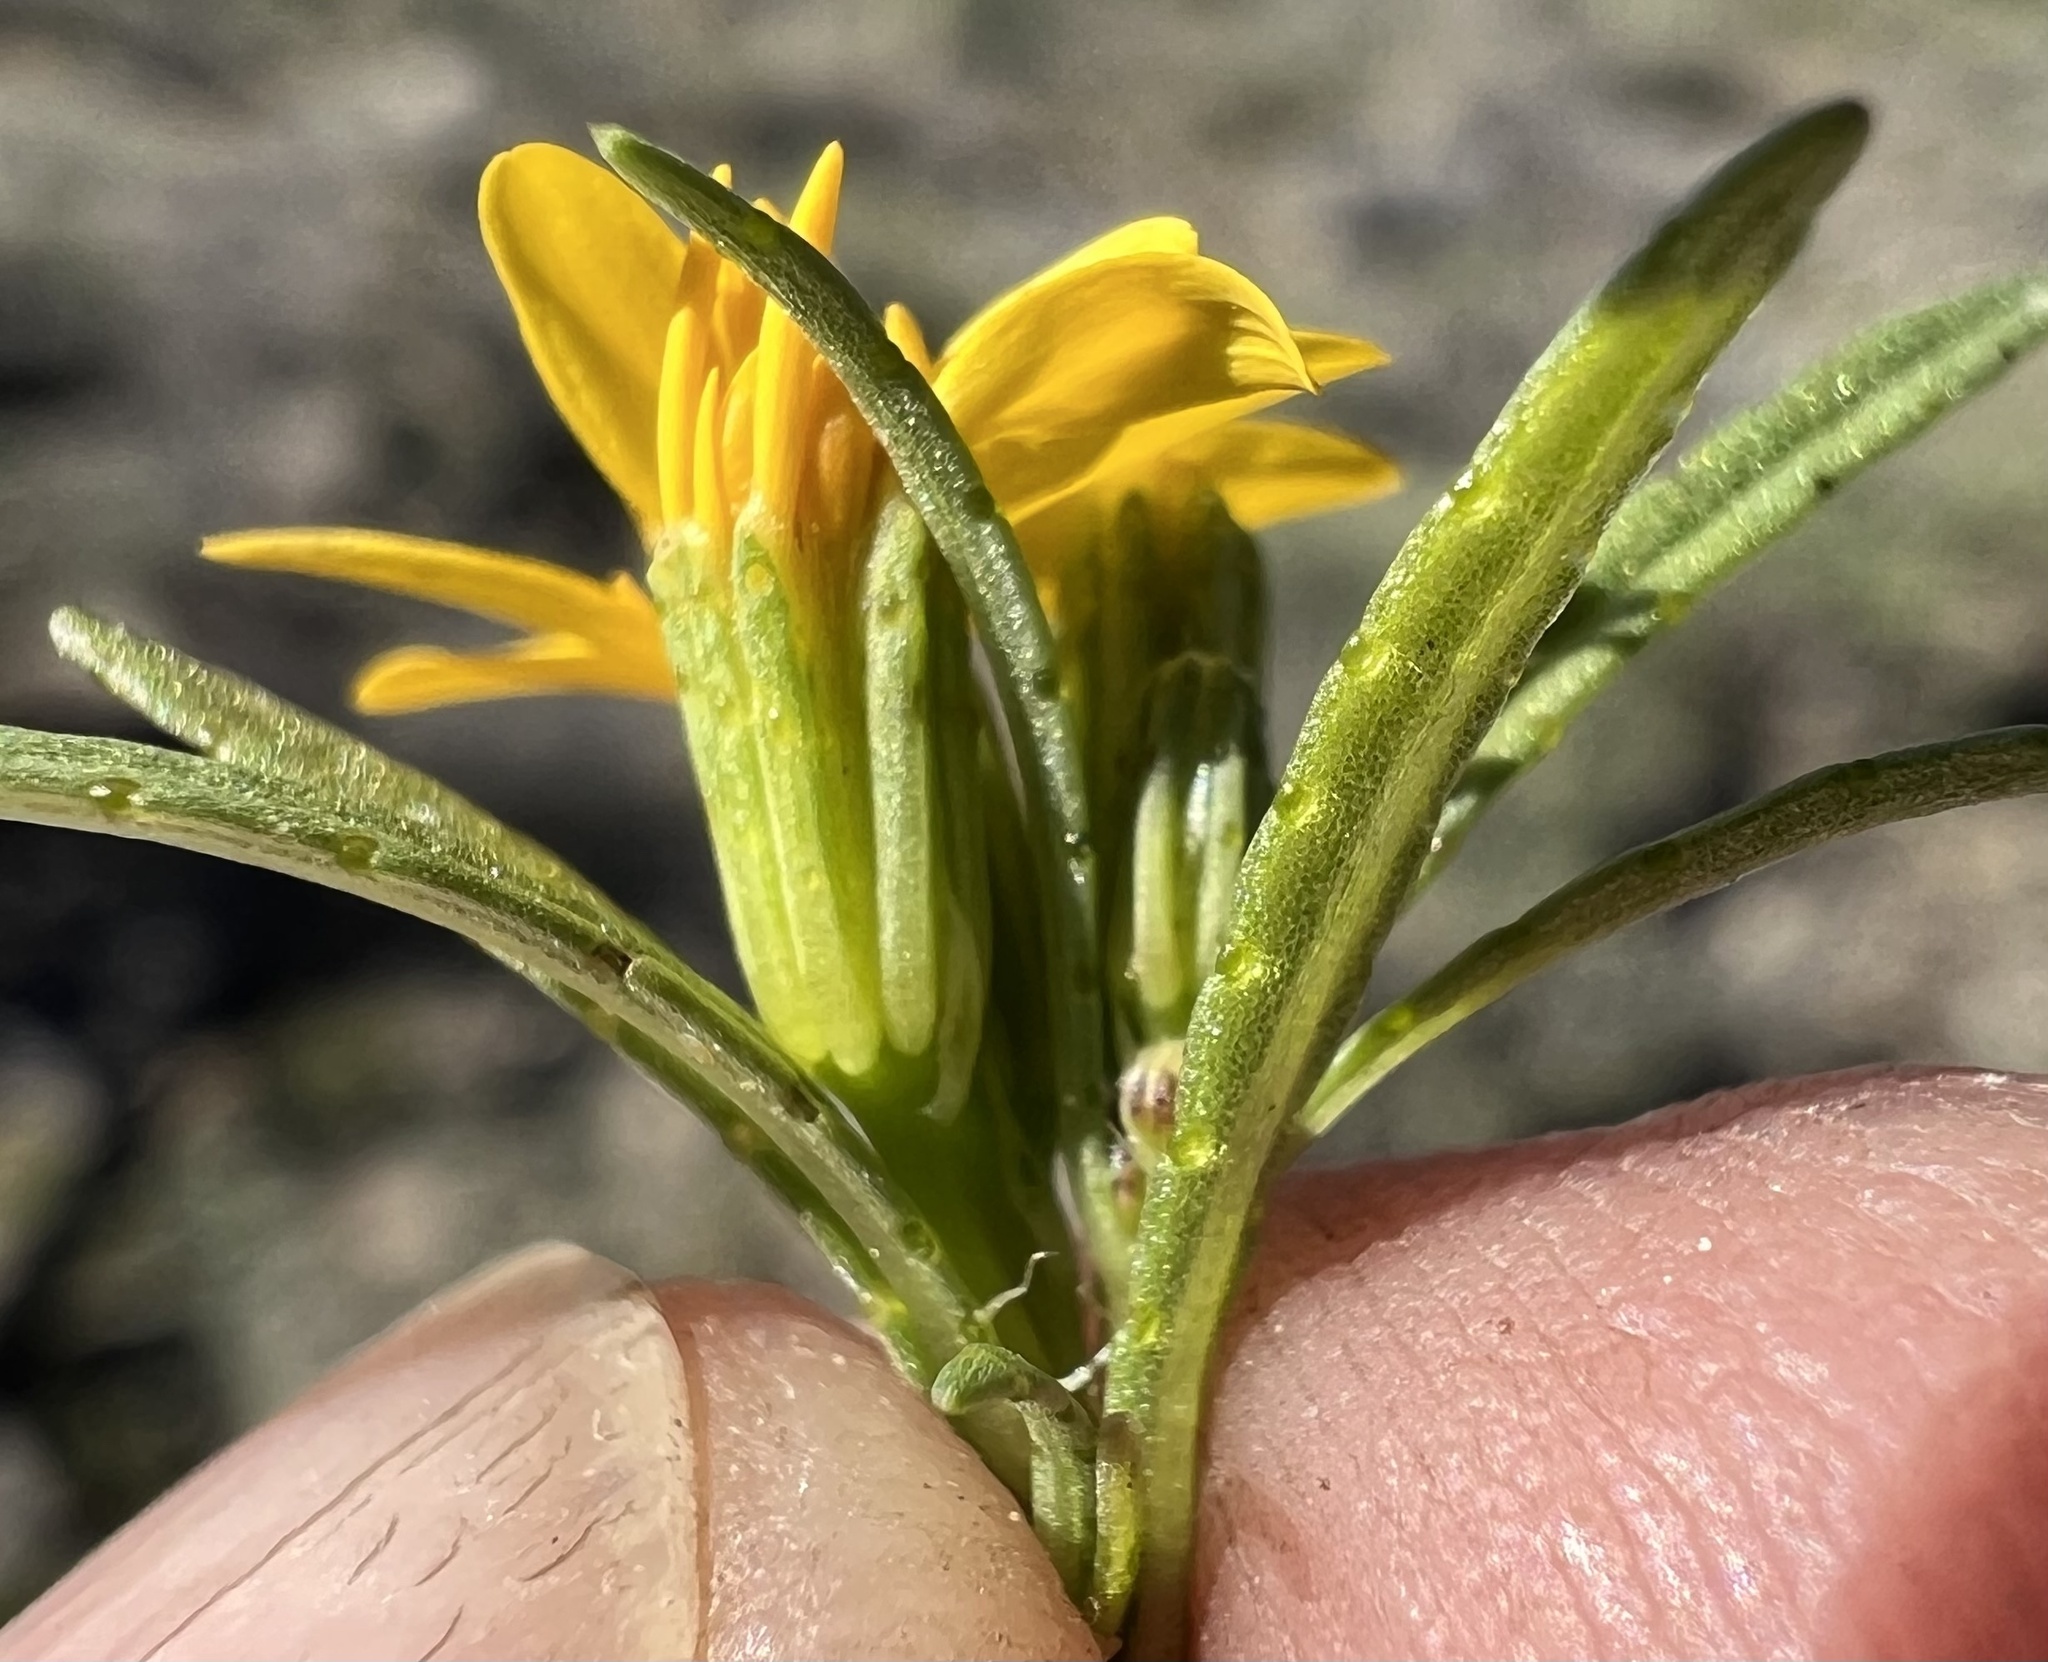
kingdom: Plantae
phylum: Tracheophyta
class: Magnoliopsida
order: Asterales
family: Asteraceae
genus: Pectis
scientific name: Pectis papposa
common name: Many-bristle chinchweed
